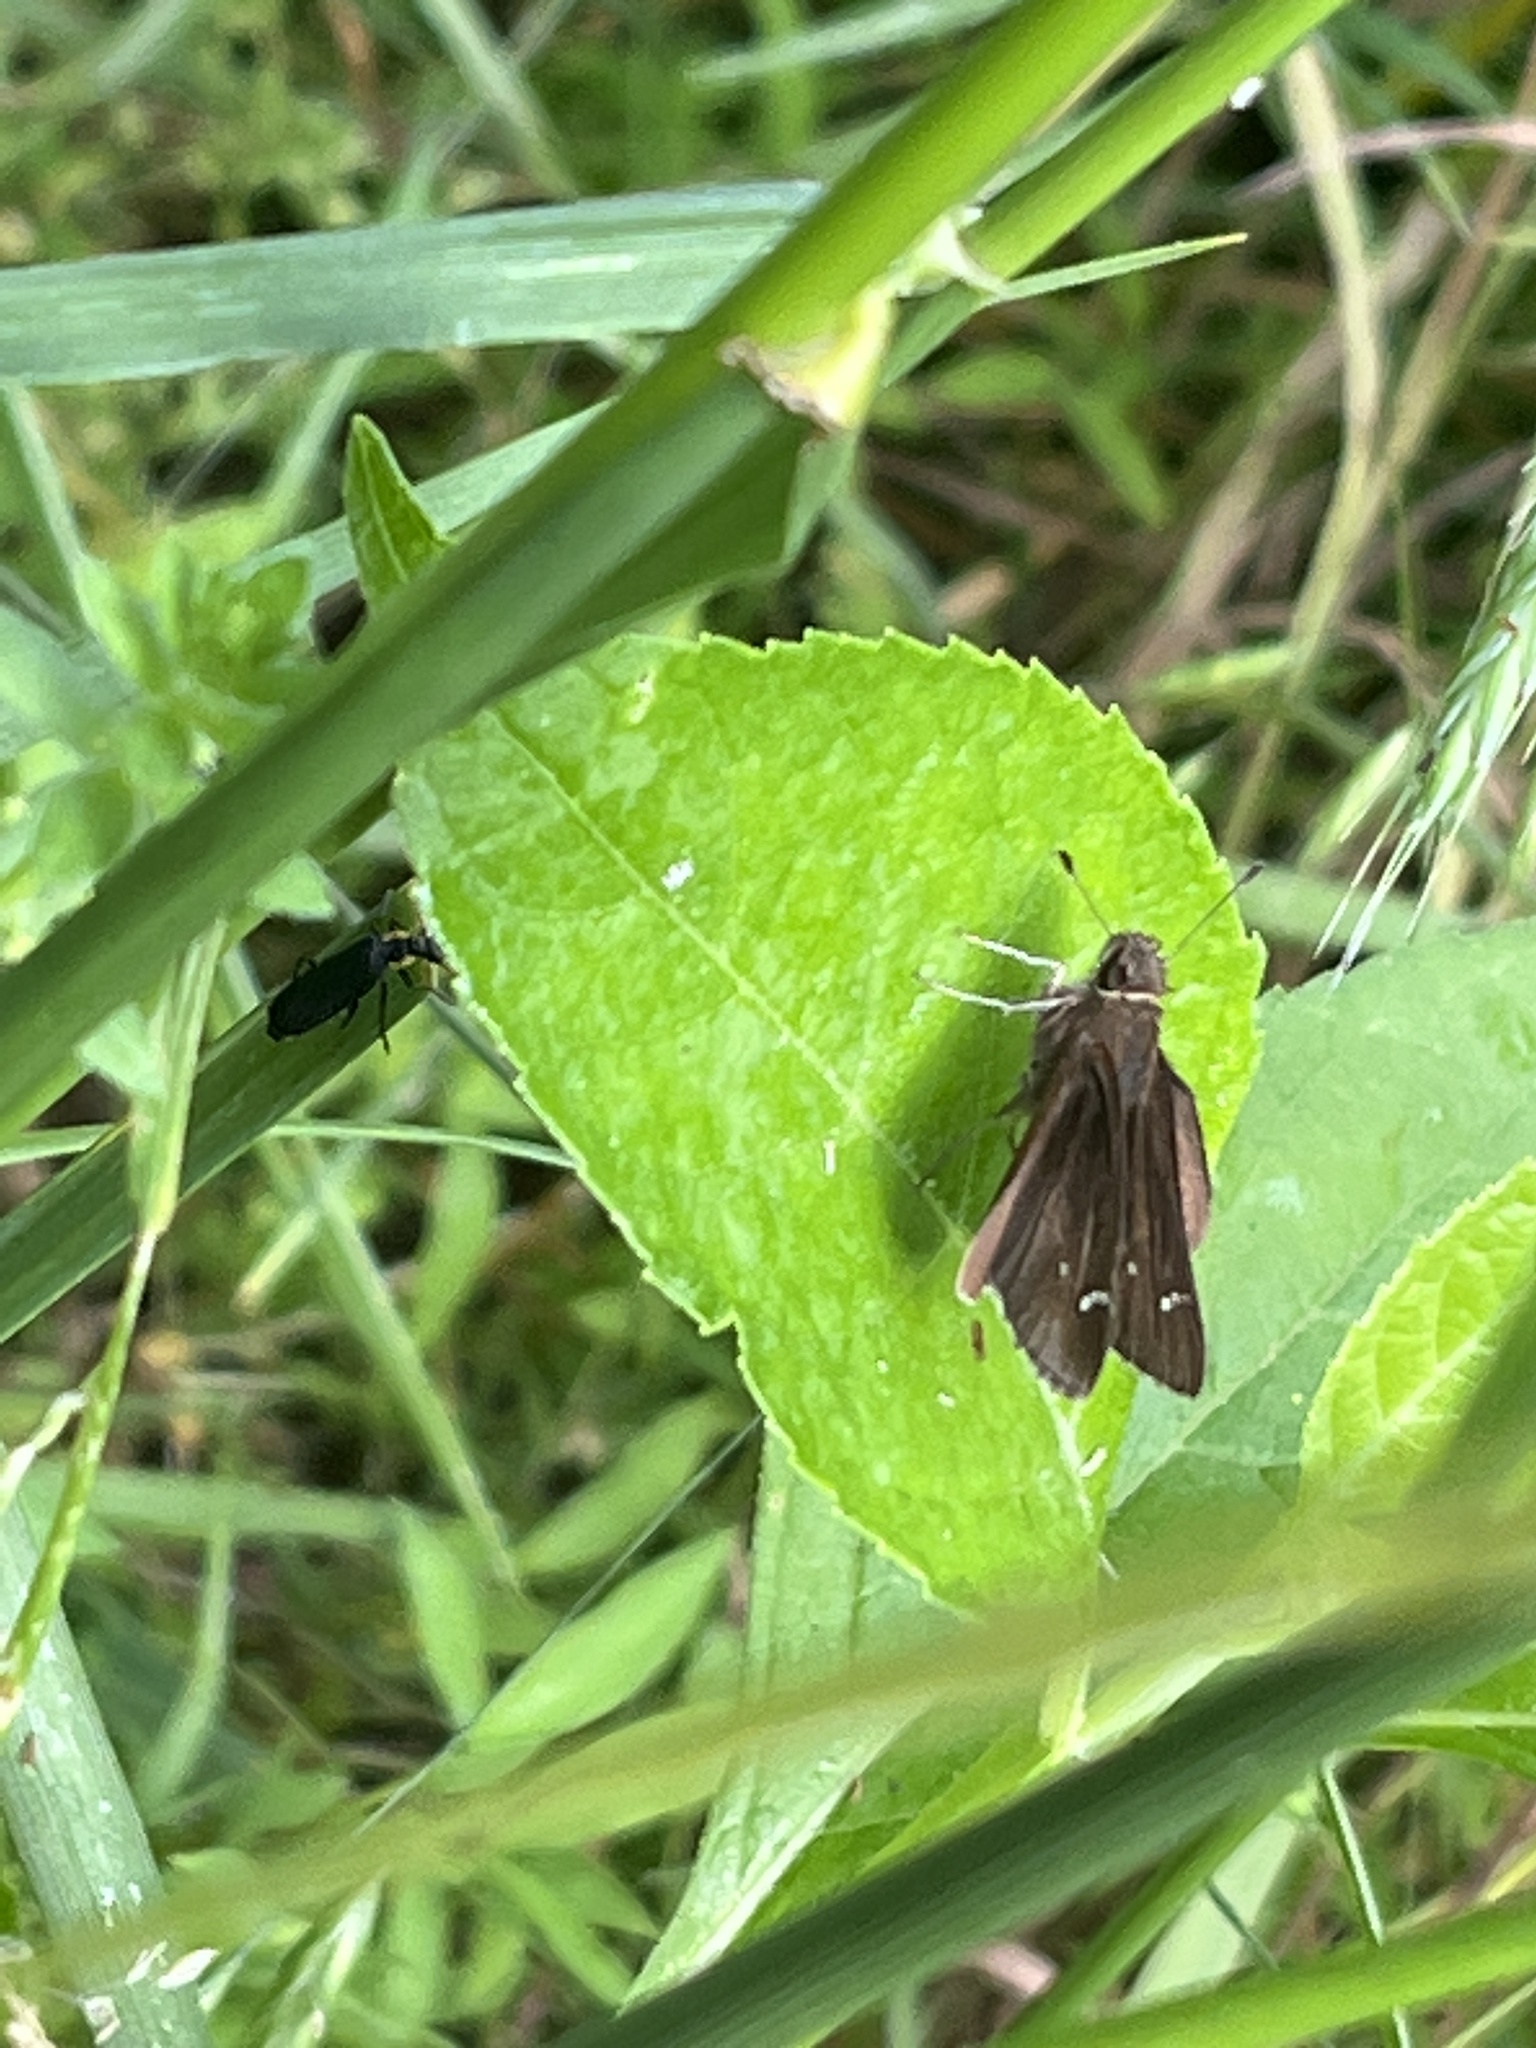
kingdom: Animalia
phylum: Arthropoda
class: Insecta
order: Lepidoptera
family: Hesperiidae
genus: Lerema
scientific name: Lerema accius
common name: Clouded skipper
